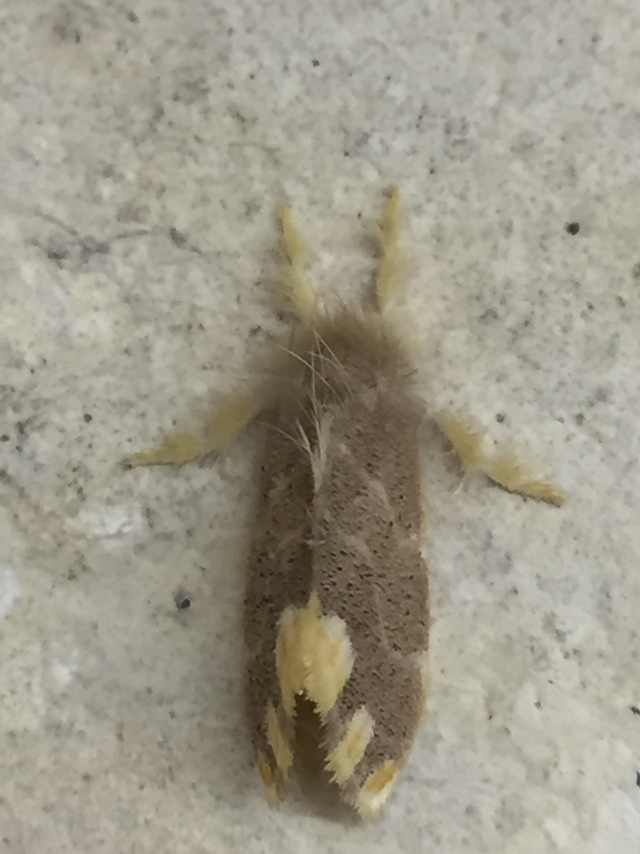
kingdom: Animalia
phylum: Arthropoda
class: Insecta
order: Lepidoptera
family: Erebidae
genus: Orvasca
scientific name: Orvasca subnotata
